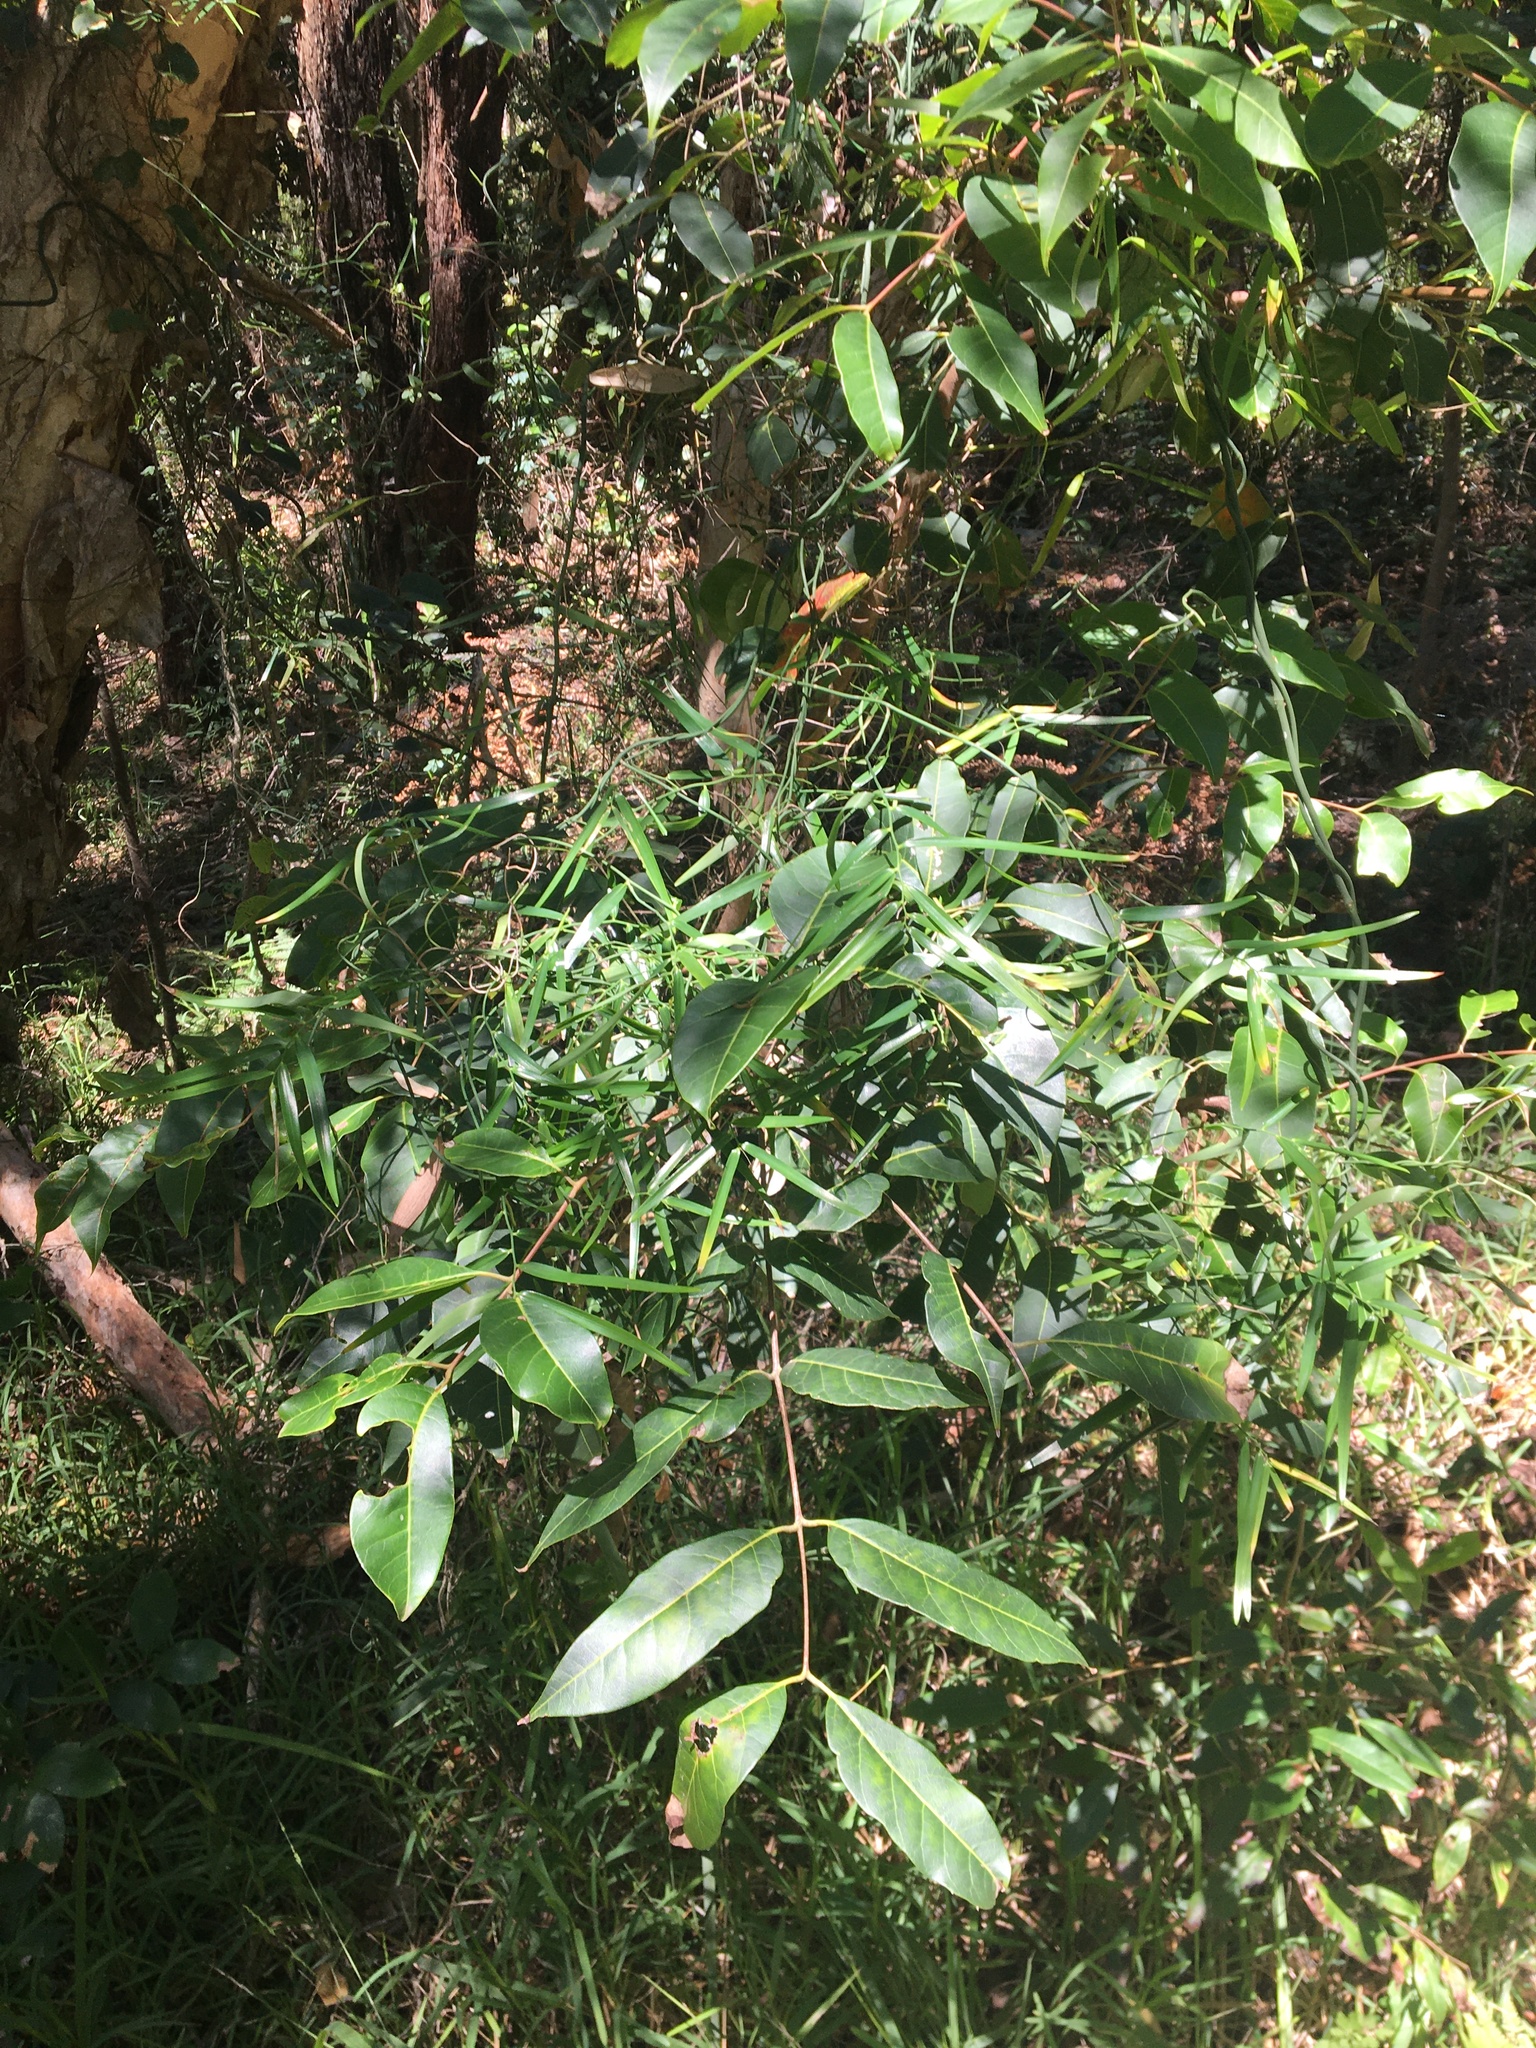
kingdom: Plantae
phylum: Tracheophyta
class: Liliopsida
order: Asparagales
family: Asphodelaceae
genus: Geitonoplesium
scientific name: Geitonoplesium cymosum
